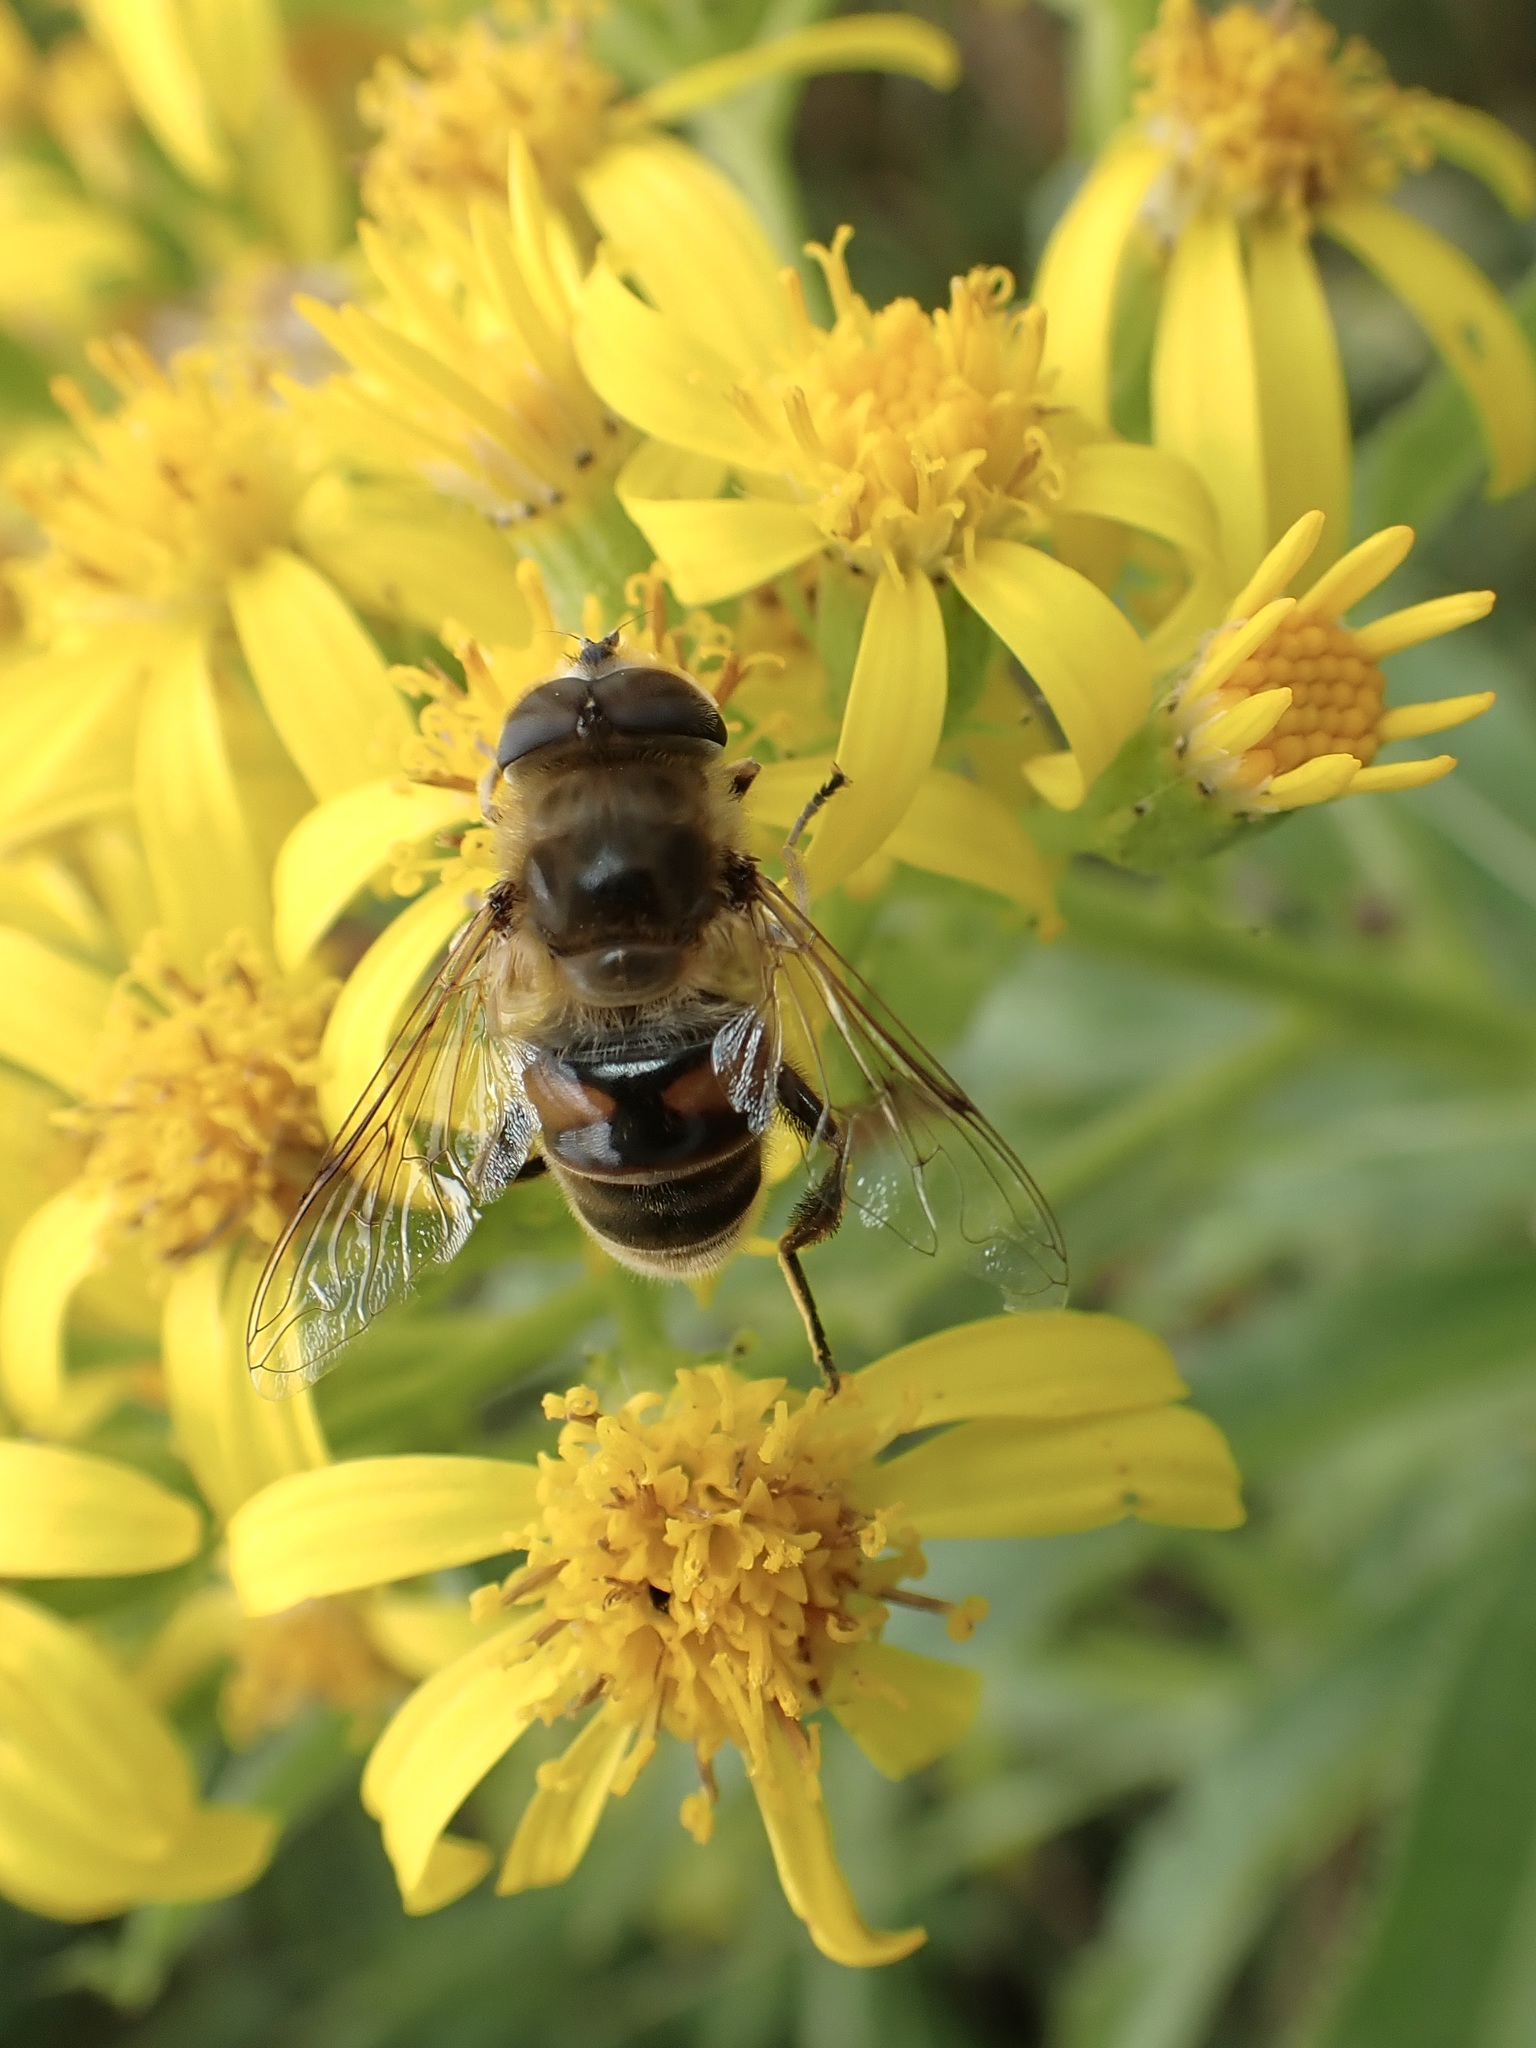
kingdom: Animalia
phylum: Arthropoda
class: Insecta
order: Diptera
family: Syrphidae
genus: Eristalis
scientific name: Eristalis tenax
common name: Drone fly
